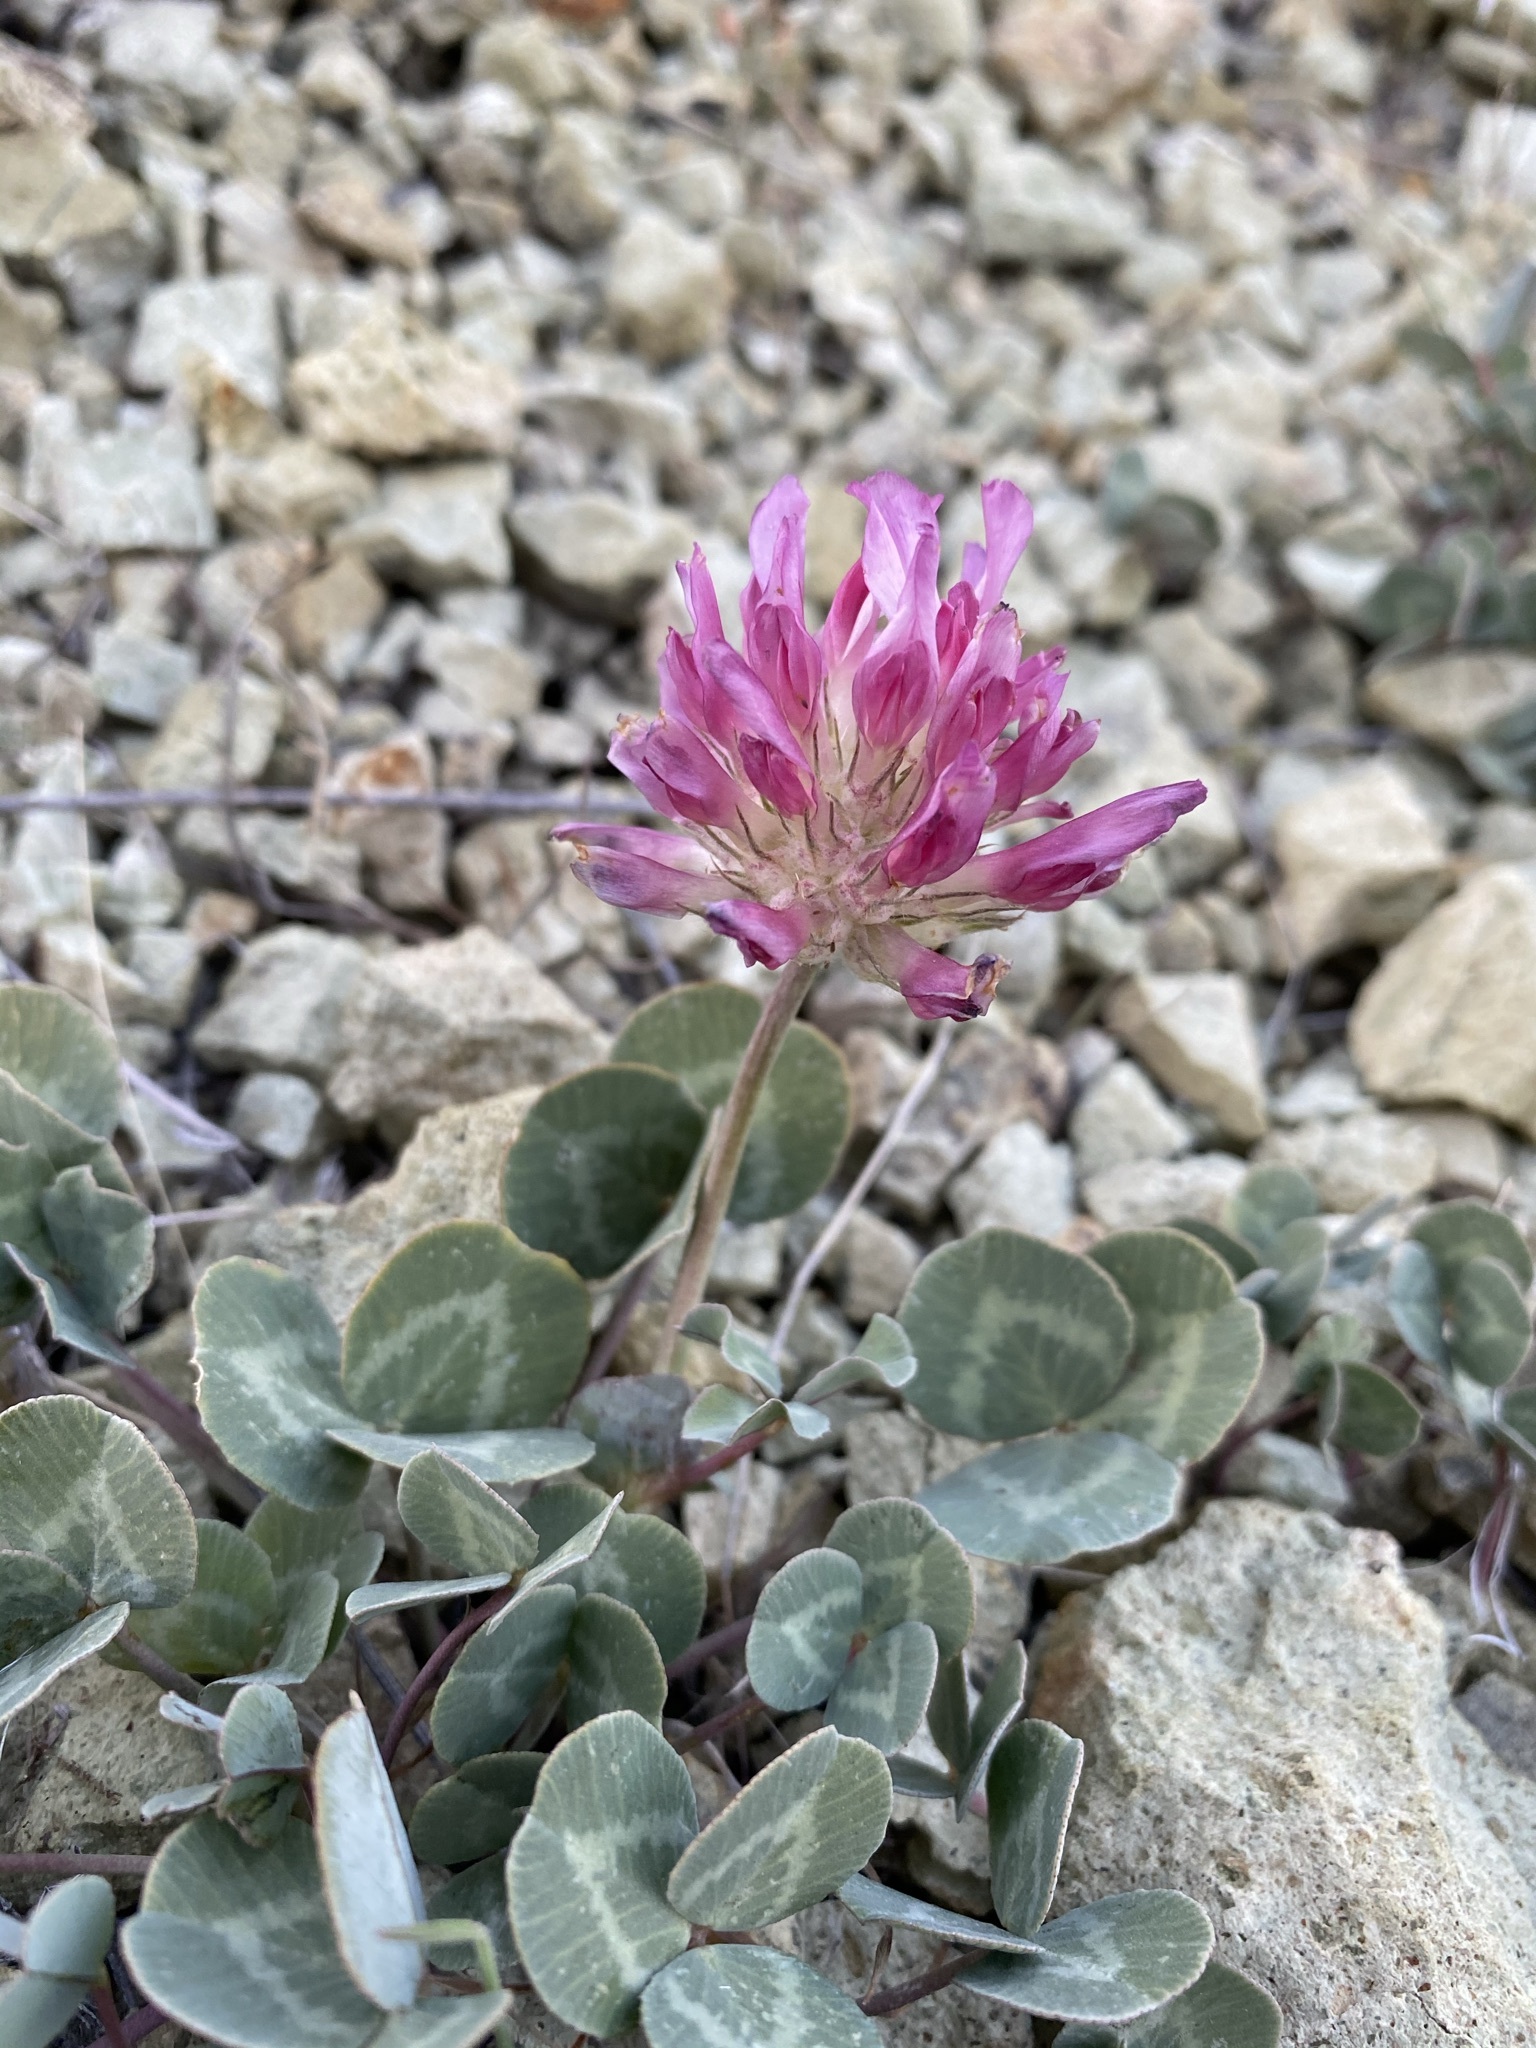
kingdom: Plantae
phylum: Tracheophyta
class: Magnoliopsida
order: Fabales
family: Fabaceae
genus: Trifolium
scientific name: Trifolium owyheense
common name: Owyhee clover
